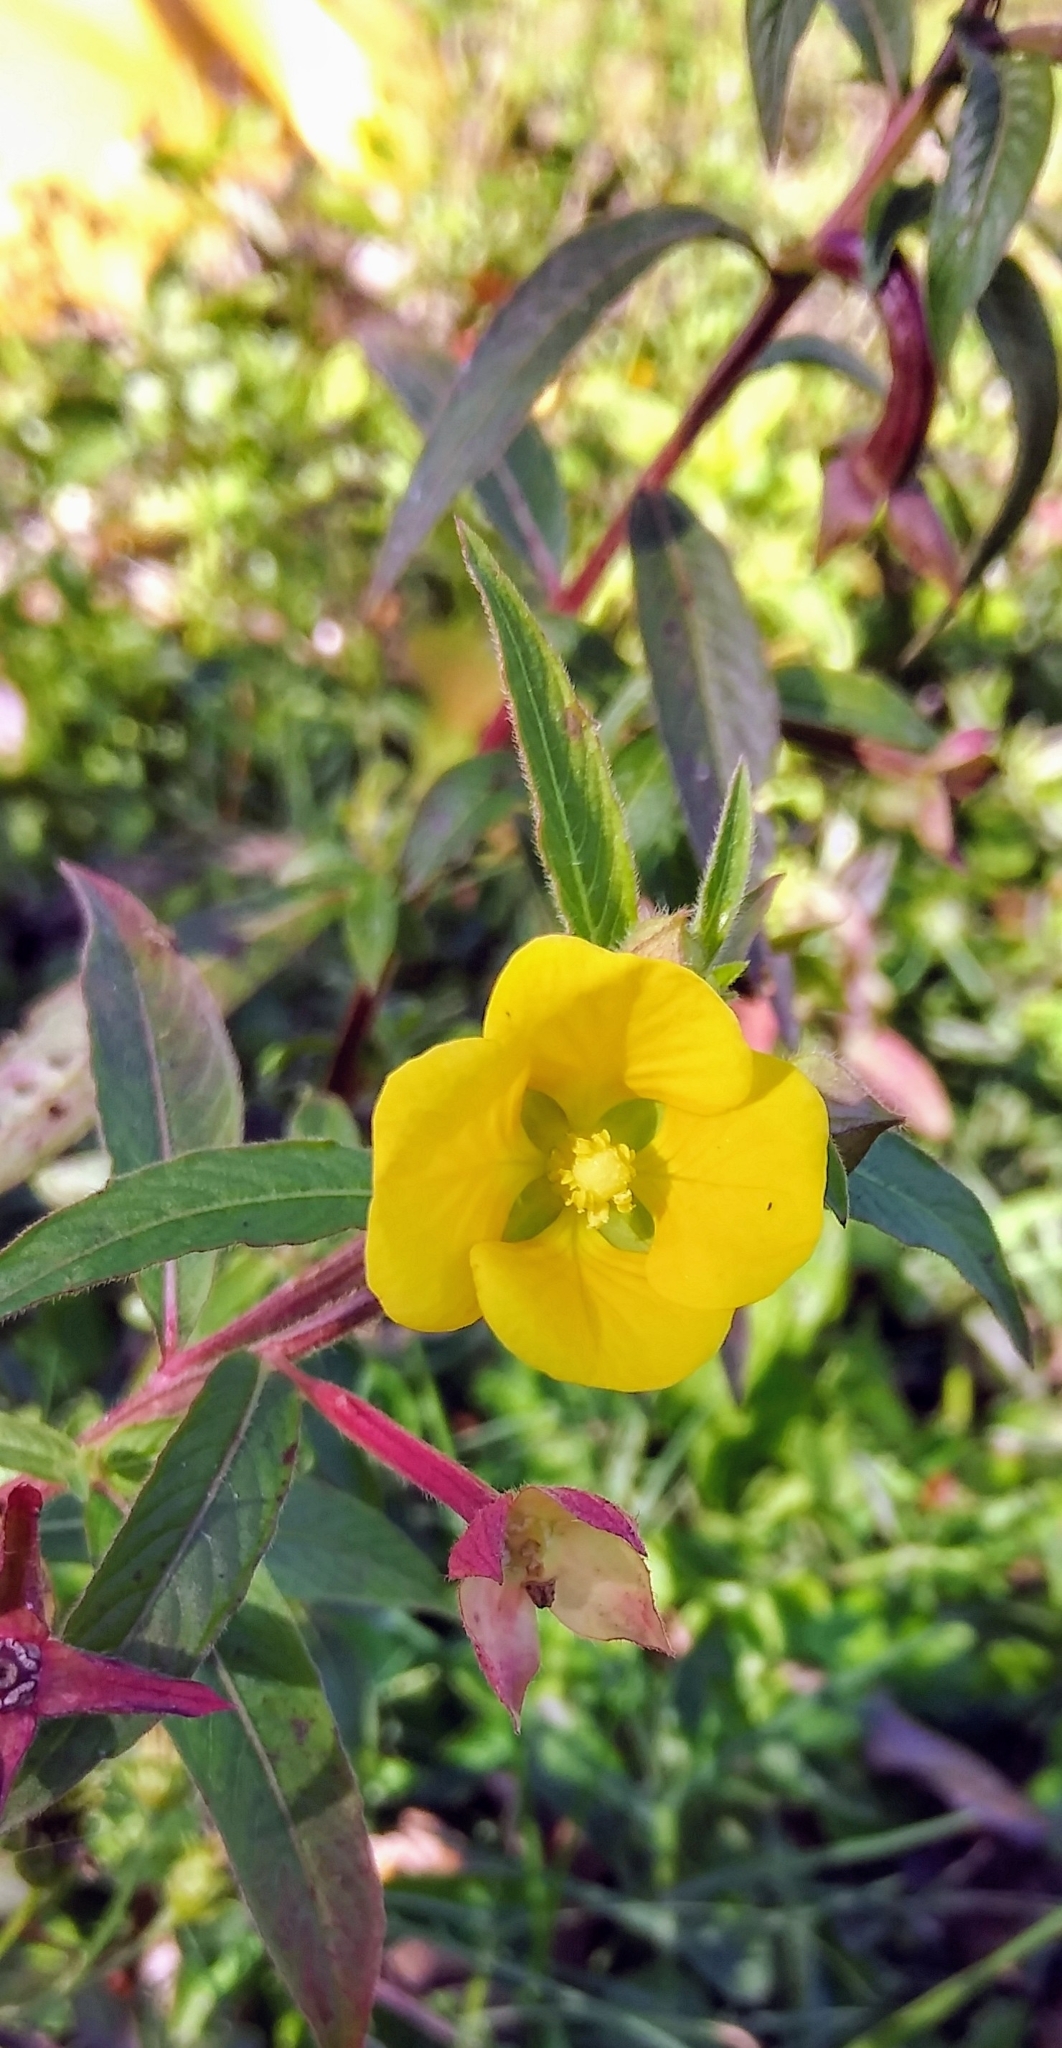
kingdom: Plantae
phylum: Tracheophyta
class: Magnoliopsida
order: Myrtales
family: Onagraceae
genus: Ludwigia
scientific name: Ludwigia octovalvis
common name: Water-primrose
